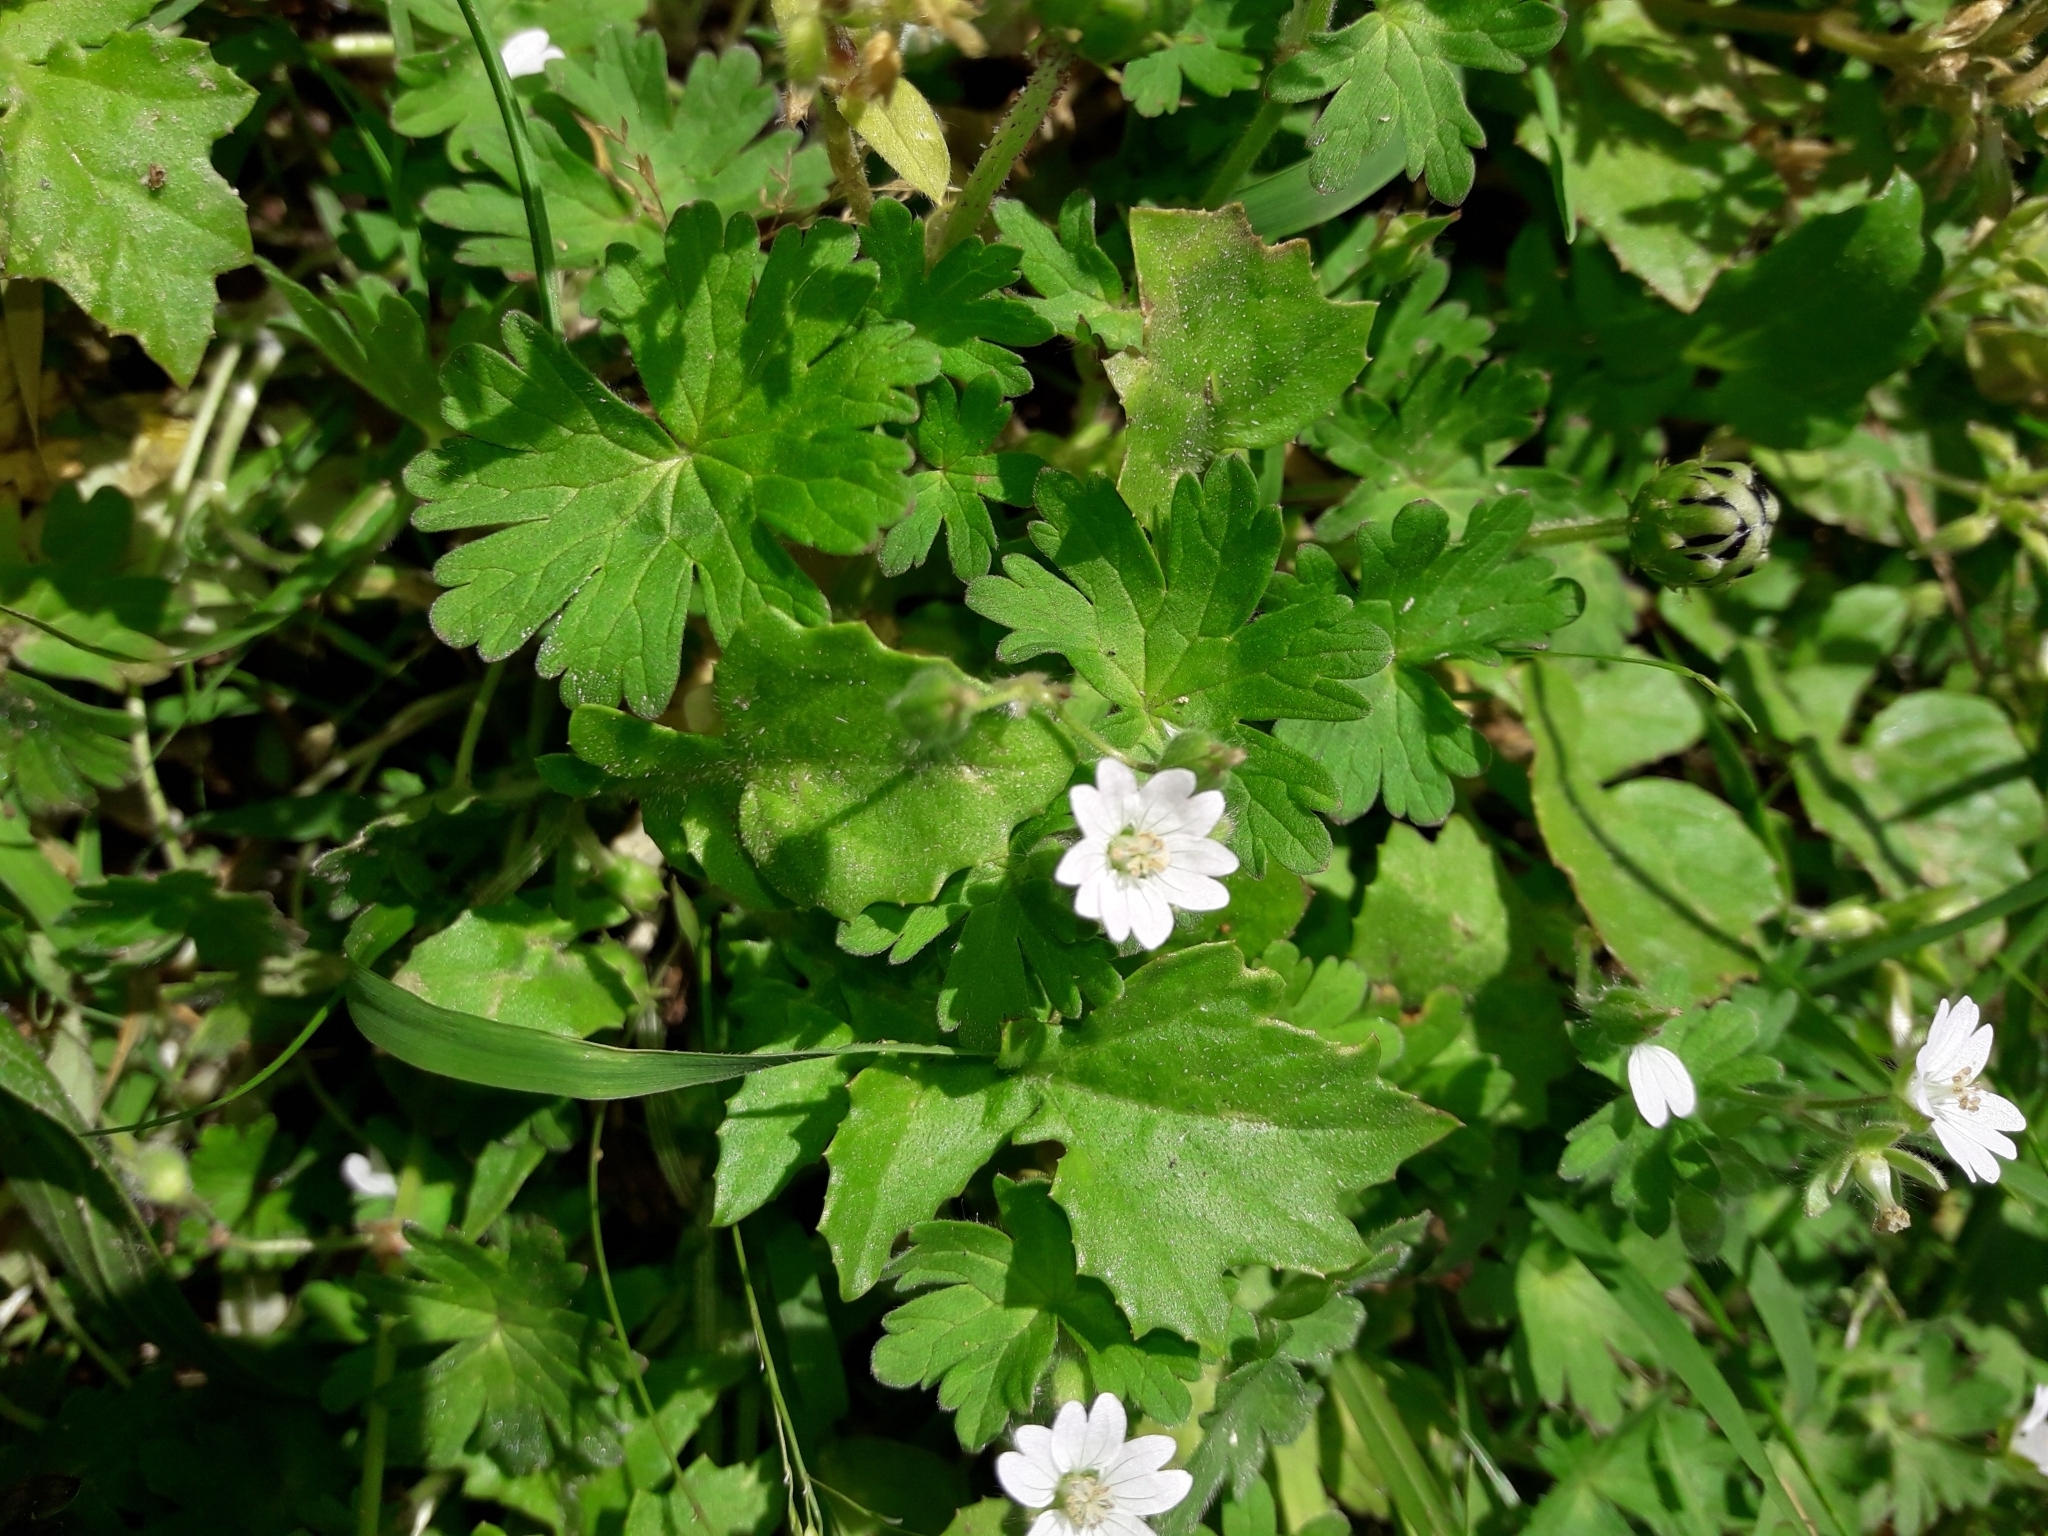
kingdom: Plantae
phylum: Tracheophyta
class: Magnoliopsida
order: Geraniales
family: Geraniaceae
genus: Geranium
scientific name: Geranium molle
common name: Dove's-foot crane's-bill
